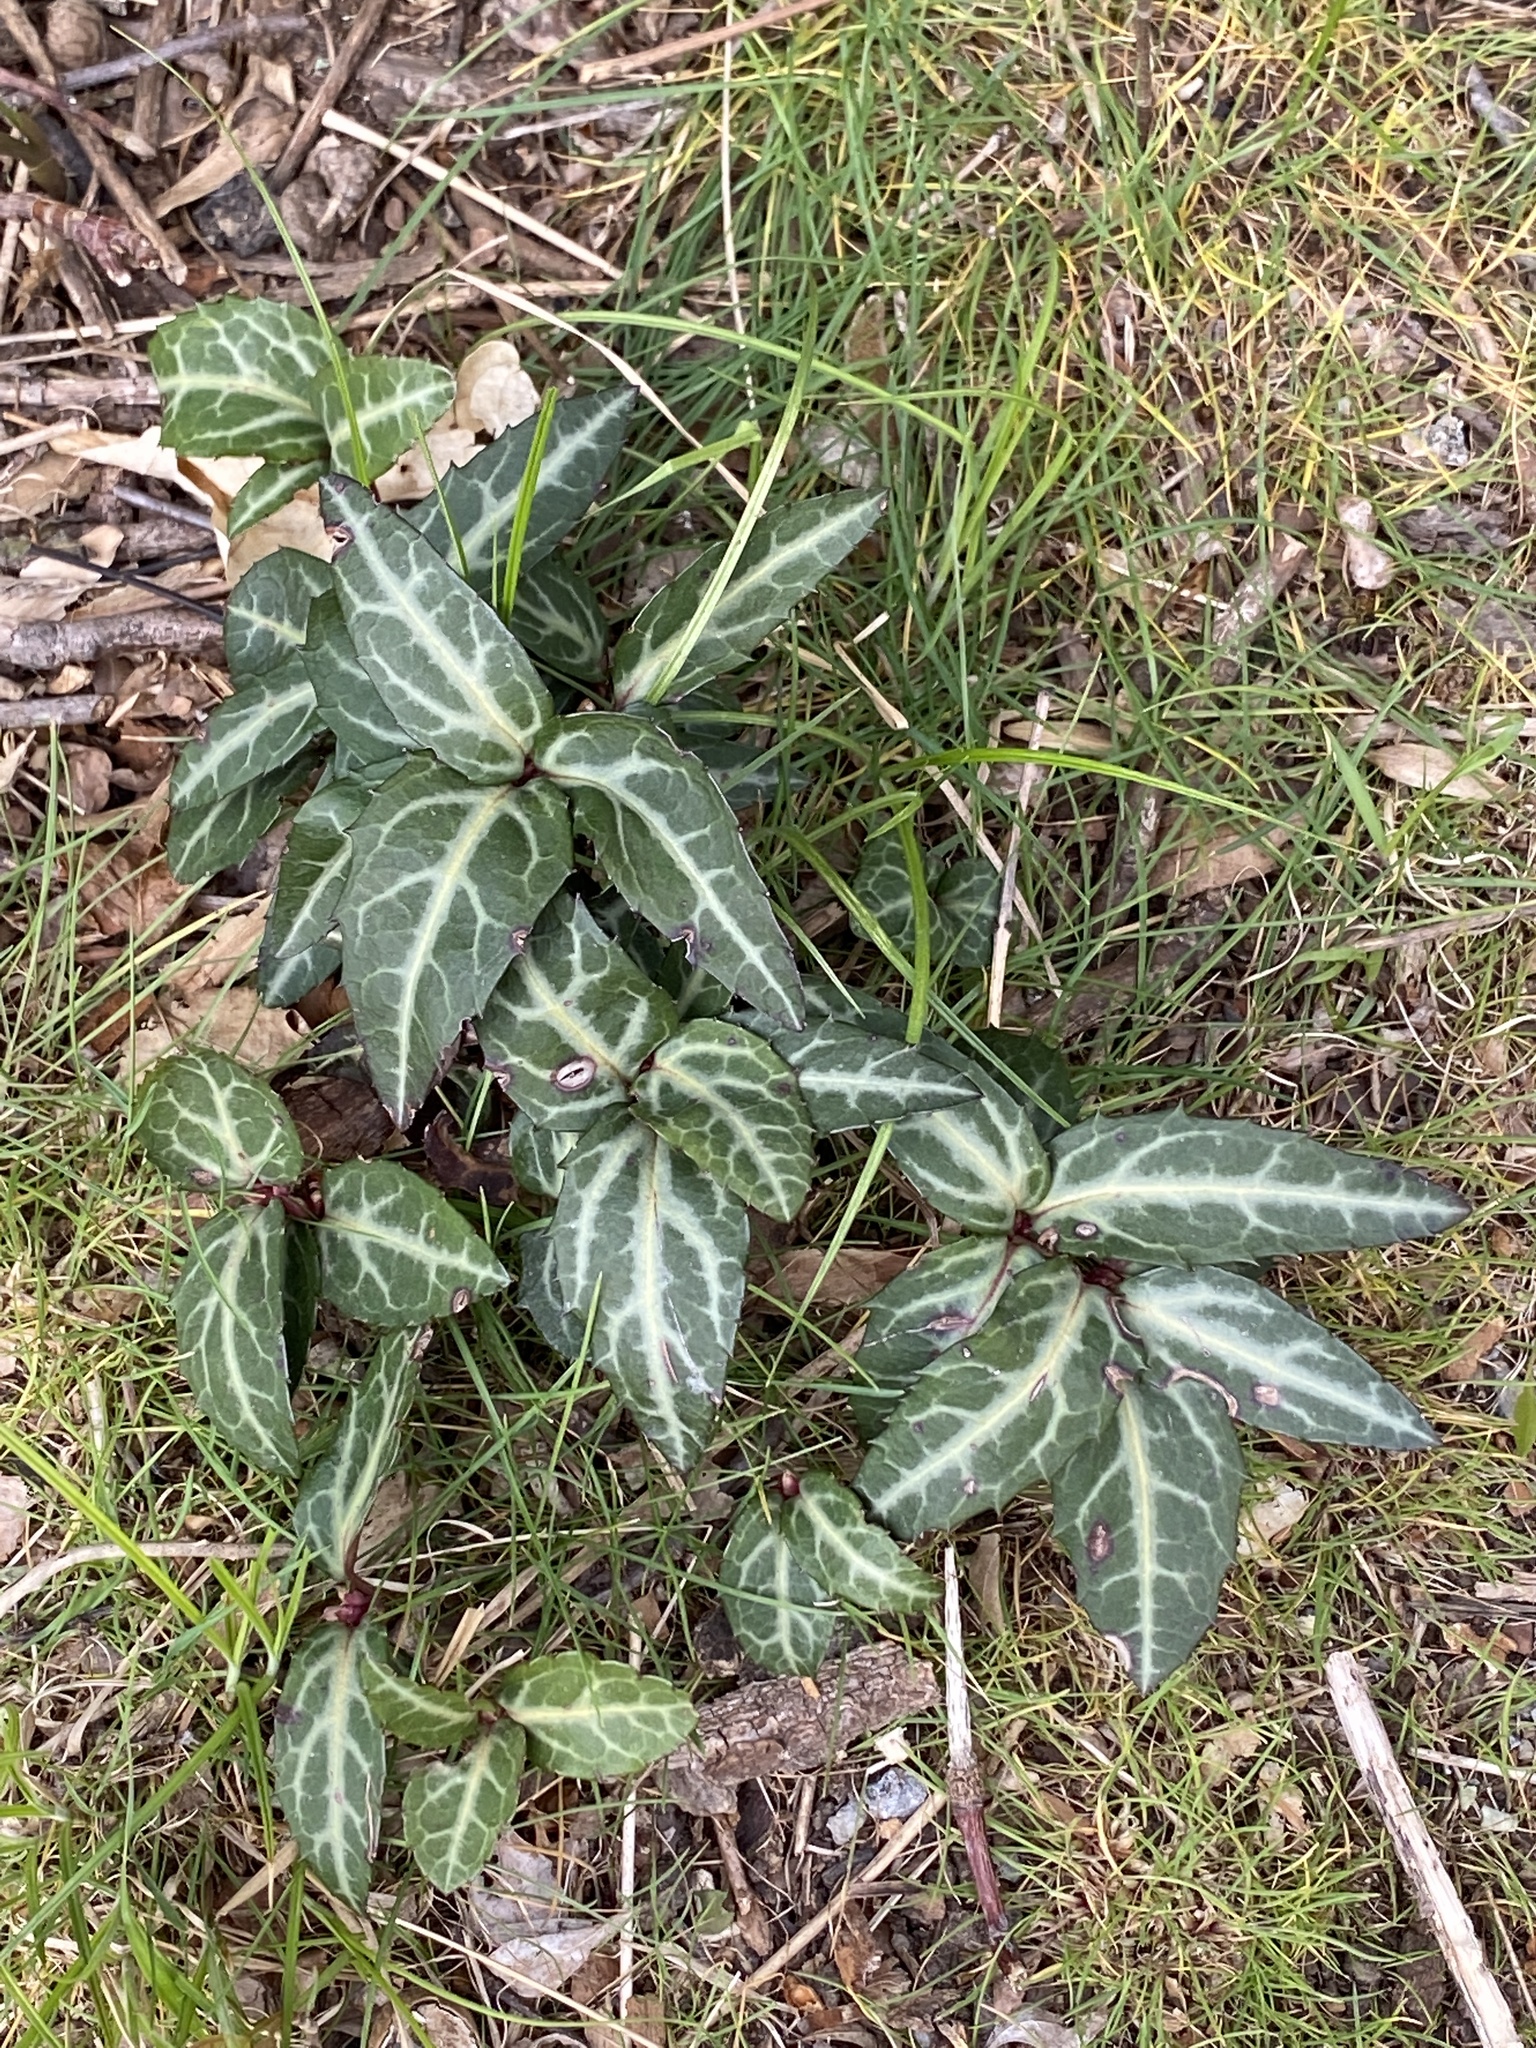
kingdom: Plantae
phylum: Tracheophyta
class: Magnoliopsida
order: Ericales
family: Ericaceae
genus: Chimaphila
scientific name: Chimaphila maculata
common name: Spotted pipsissewa
